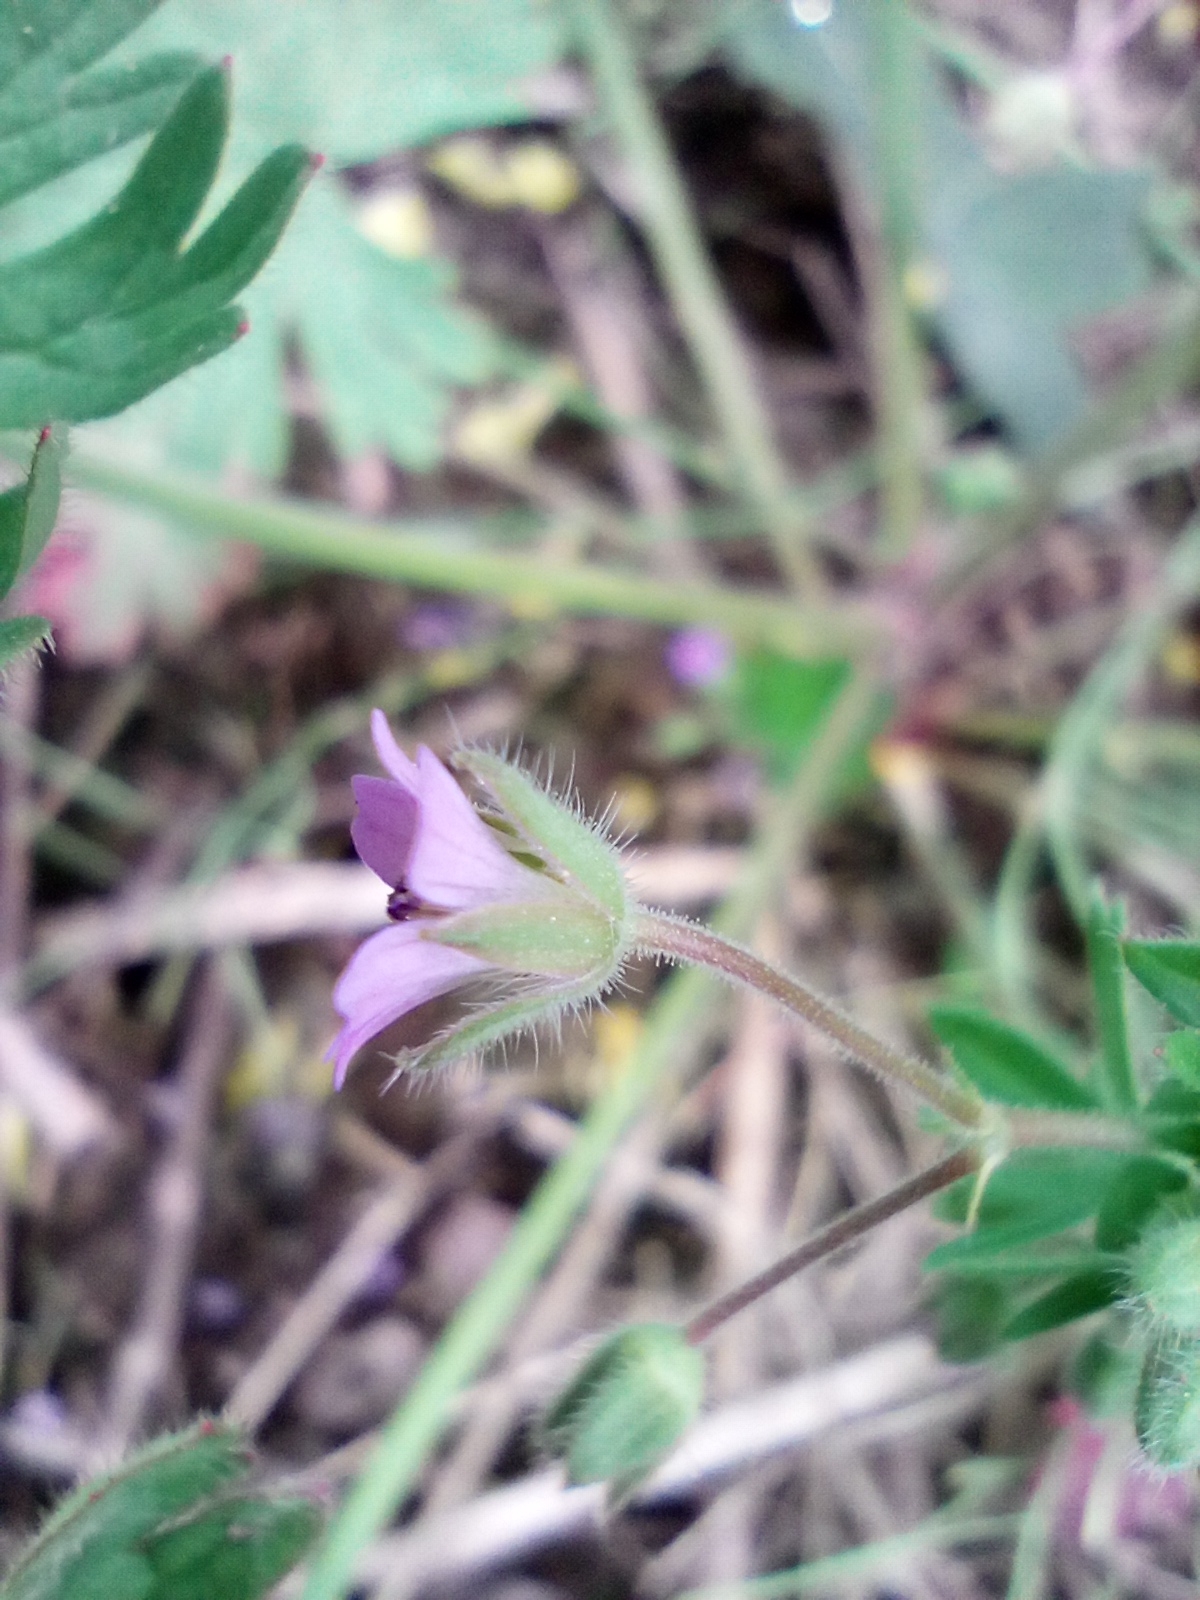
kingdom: Plantae
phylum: Tracheophyta
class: Magnoliopsida
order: Geraniales
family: Geraniaceae
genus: Geranium
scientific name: Geranium pusillum
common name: Small geranium
